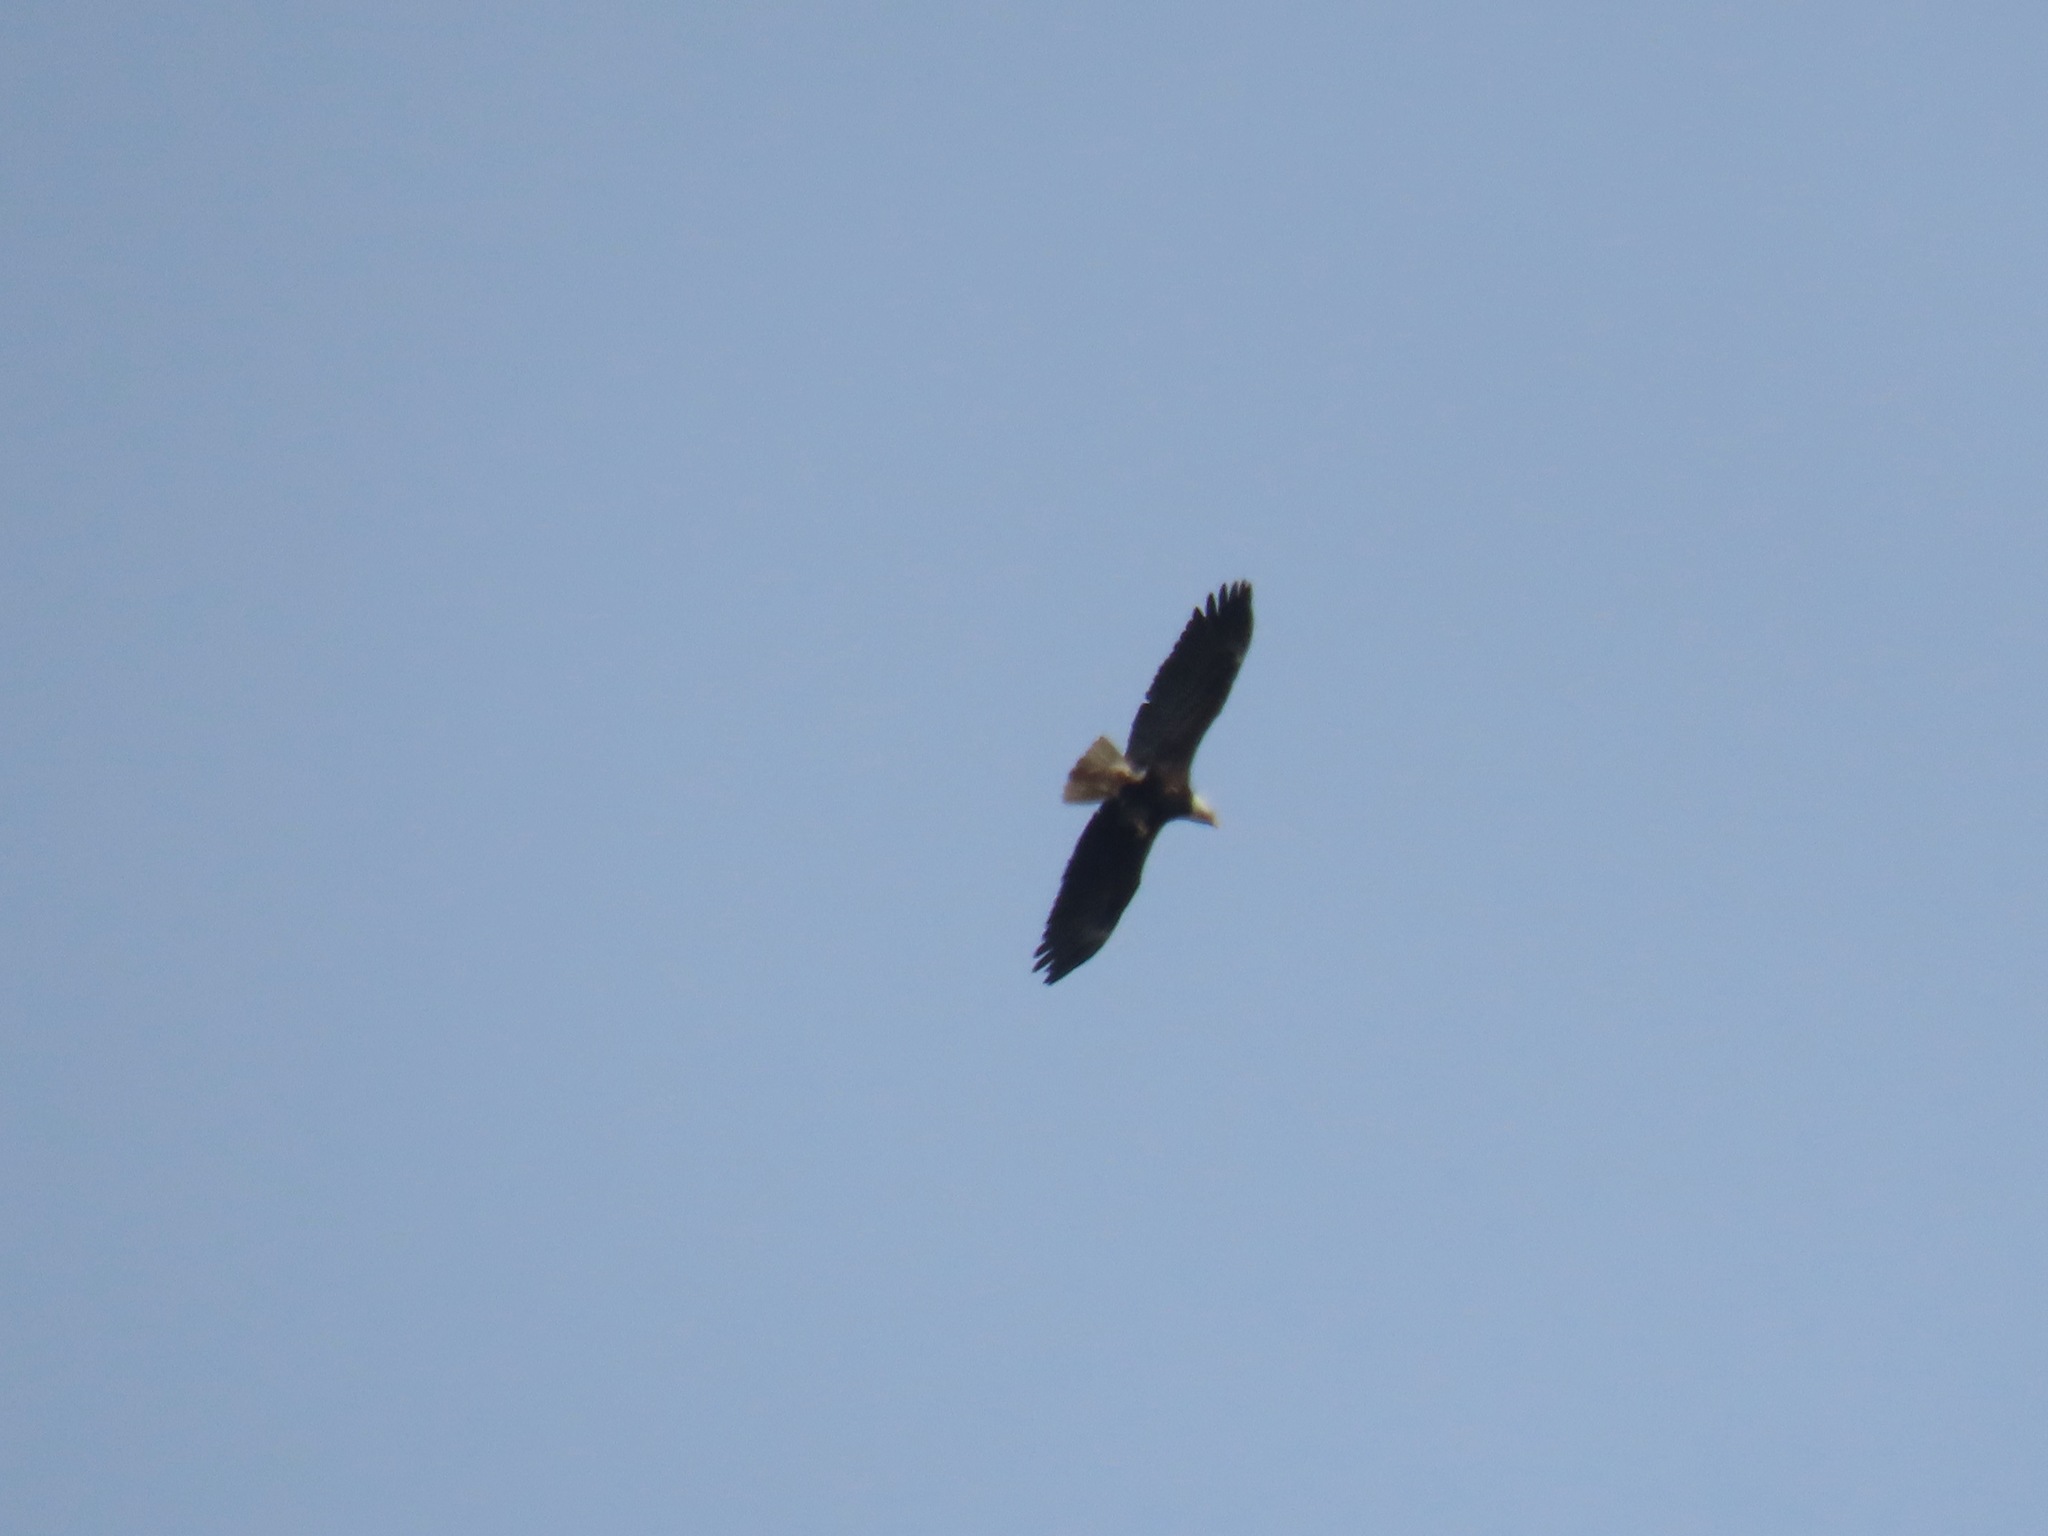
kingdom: Animalia
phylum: Chordata
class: Aves
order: Accipitriformes
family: Accipitridae
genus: Haliaeetus
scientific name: Haliaeetus leucocephalus
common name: Bald eagle
